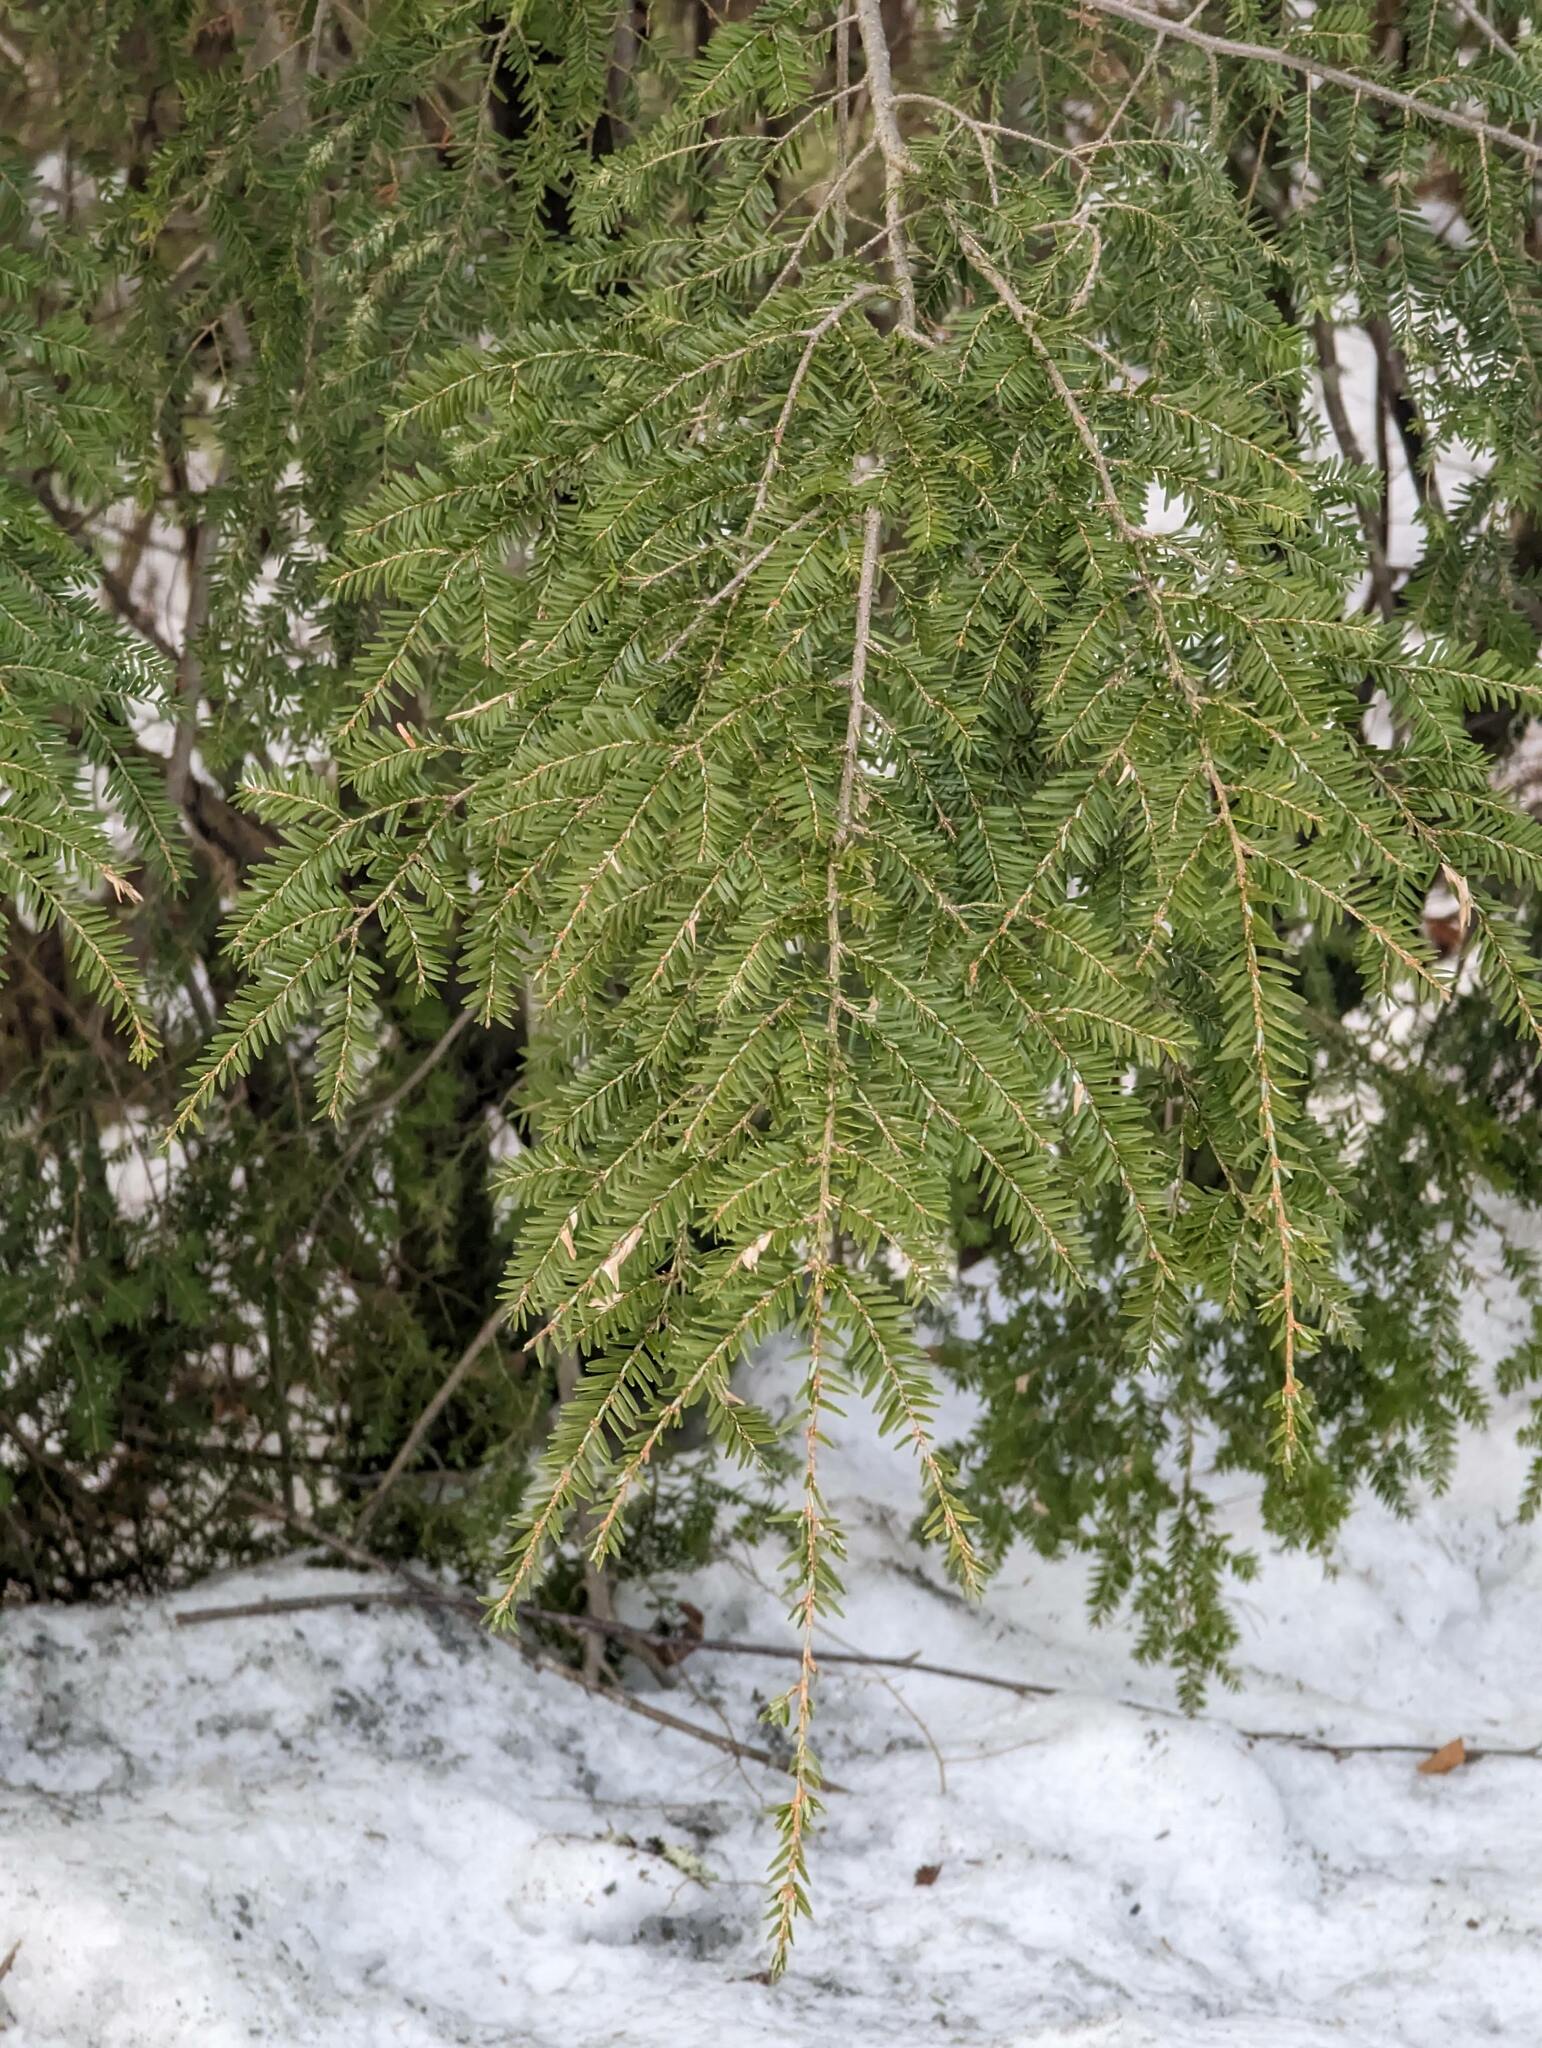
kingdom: Plantae
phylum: Tracheophyta
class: Pinopsida
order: Pinales
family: Pinaceae
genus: Tsuga
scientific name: Tsuga canadensis
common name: Eastern hemlock
